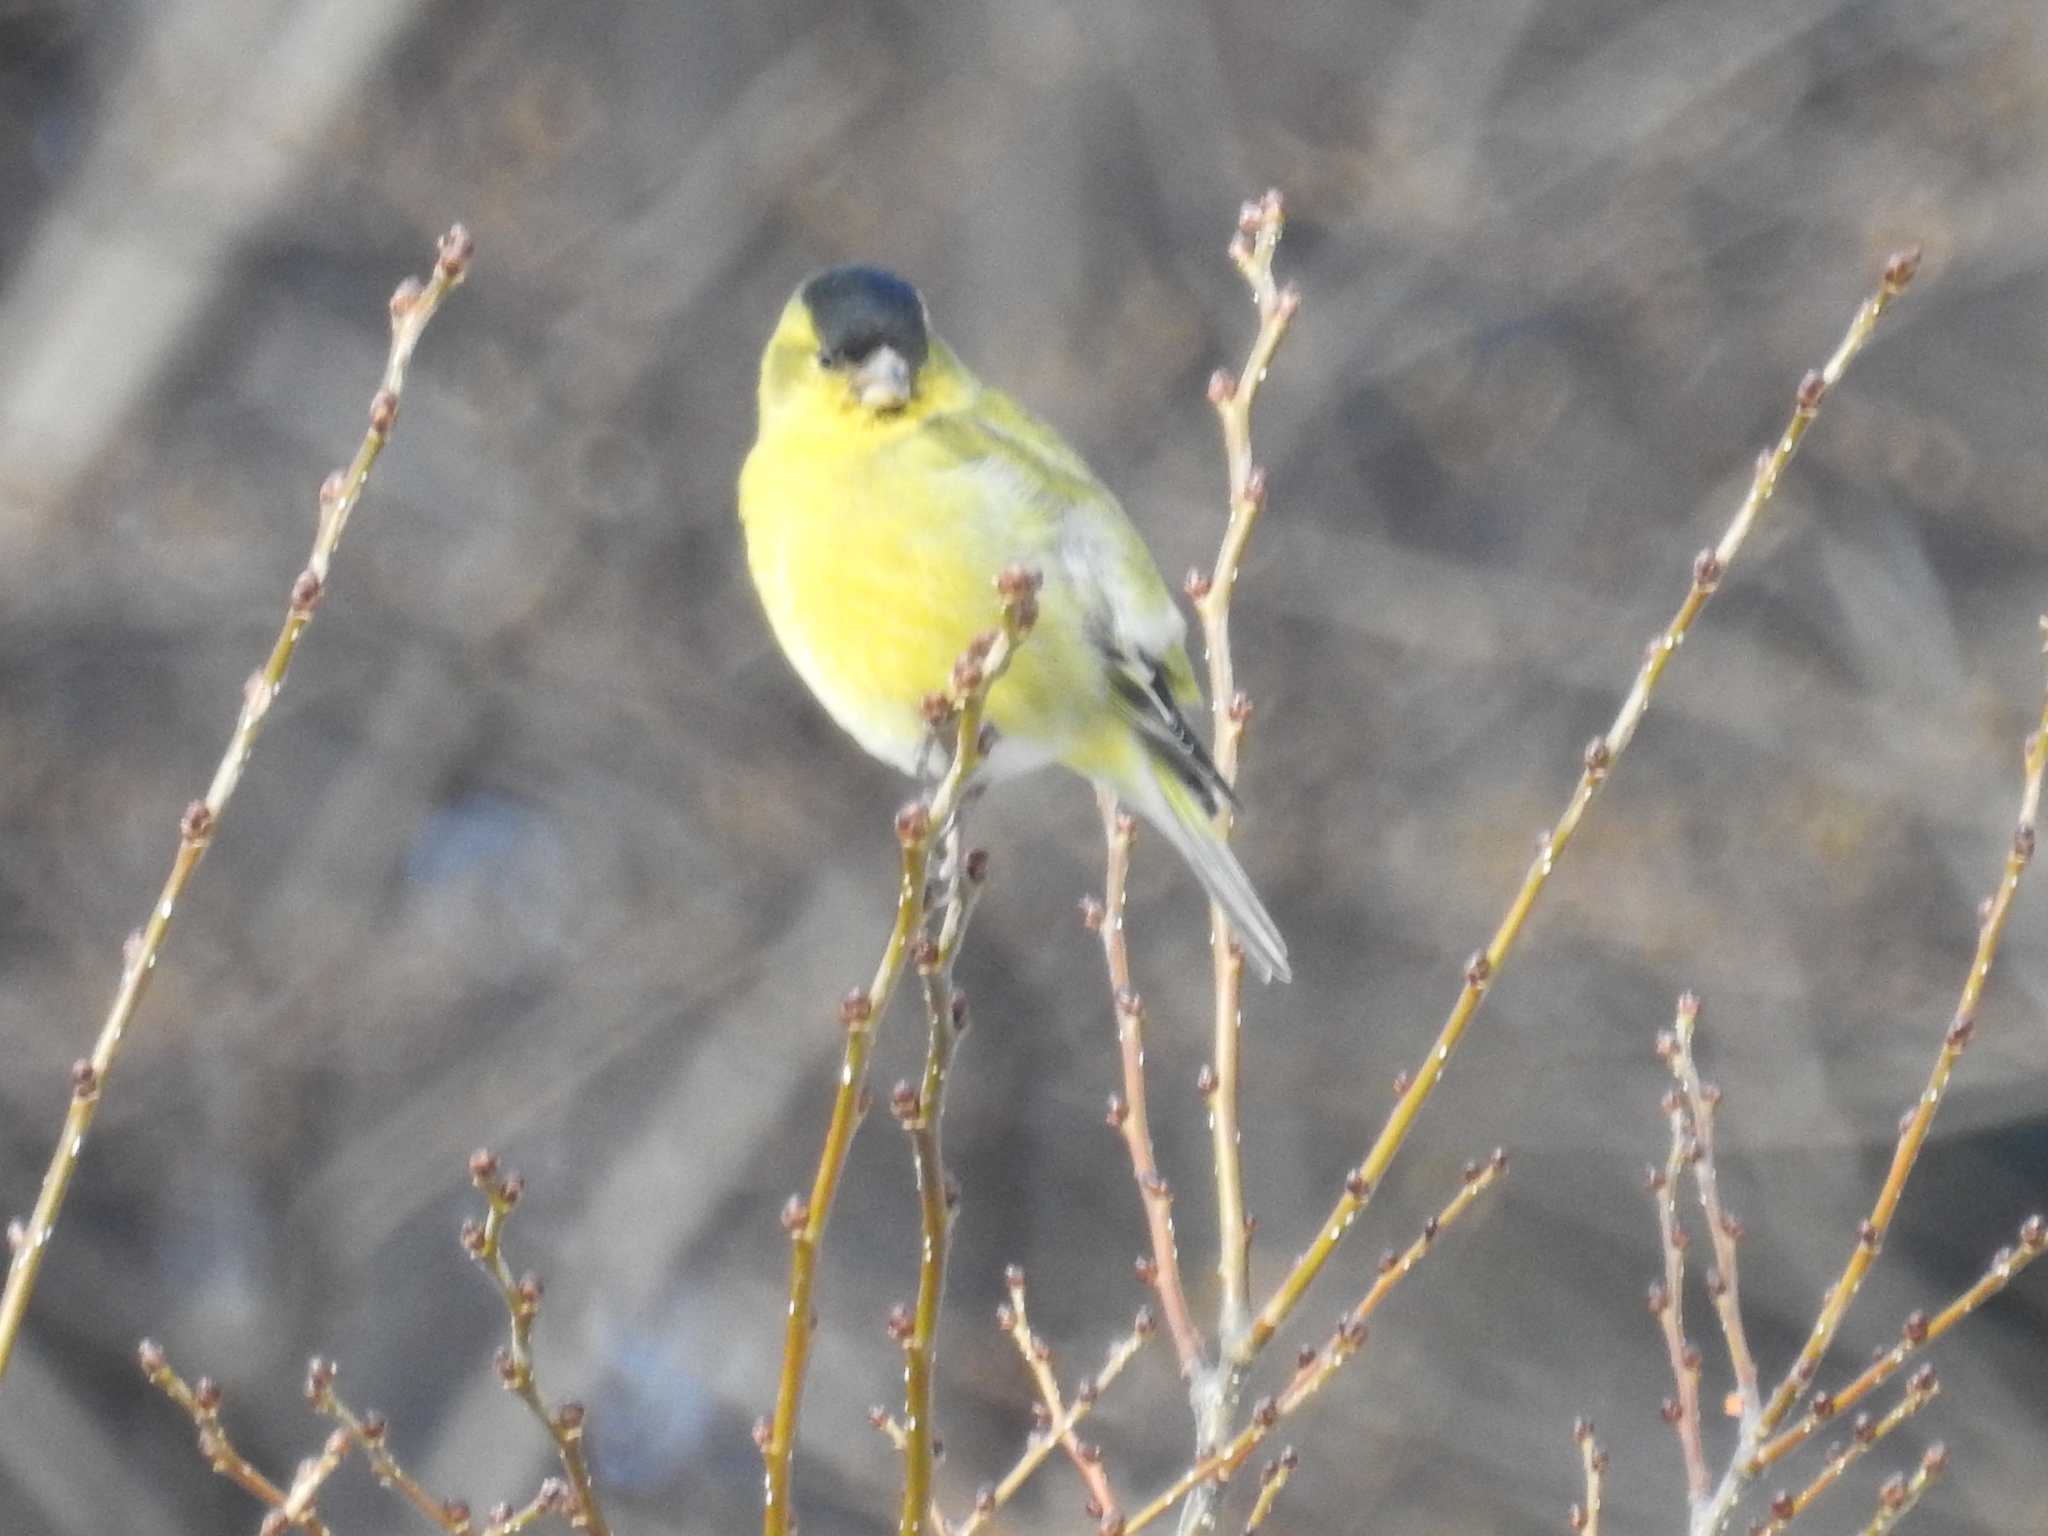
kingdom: Animalia
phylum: Chordata
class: Aves
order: Passeriformes
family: Fringillidae
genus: Spinus
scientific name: Spinus barbatus
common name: Black-chinned siskin
